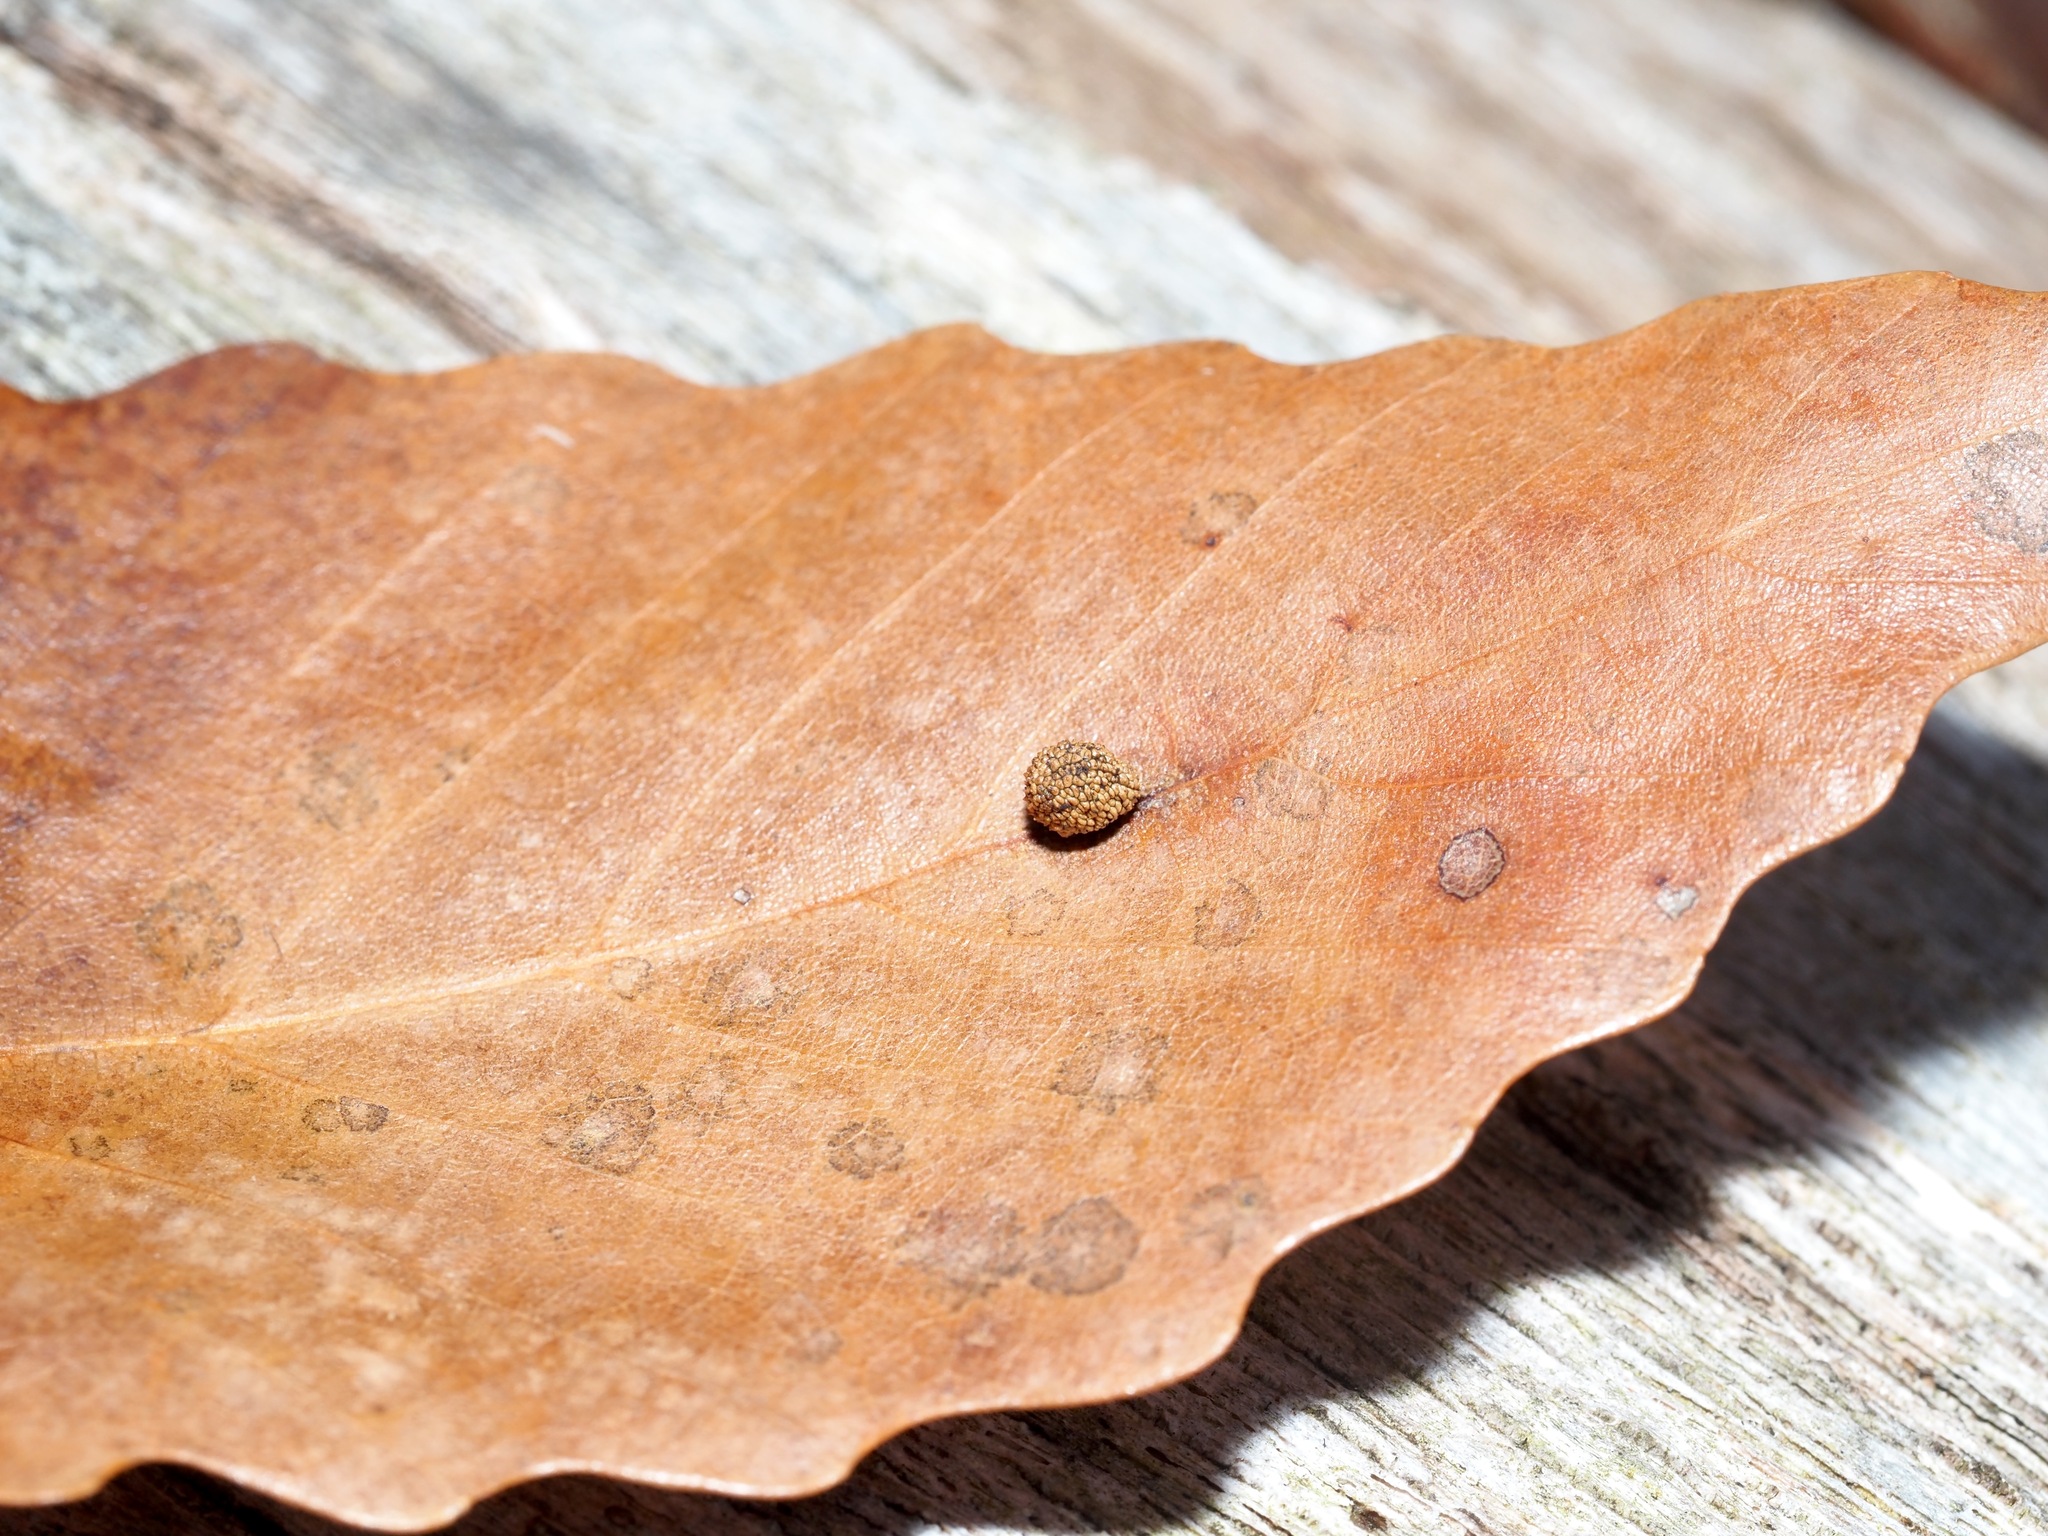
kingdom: Animalia
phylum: Arthropoda
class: Insecta
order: Hymenoptera
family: Cynipidae
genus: Acraspis
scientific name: Acraspis quercushirta
